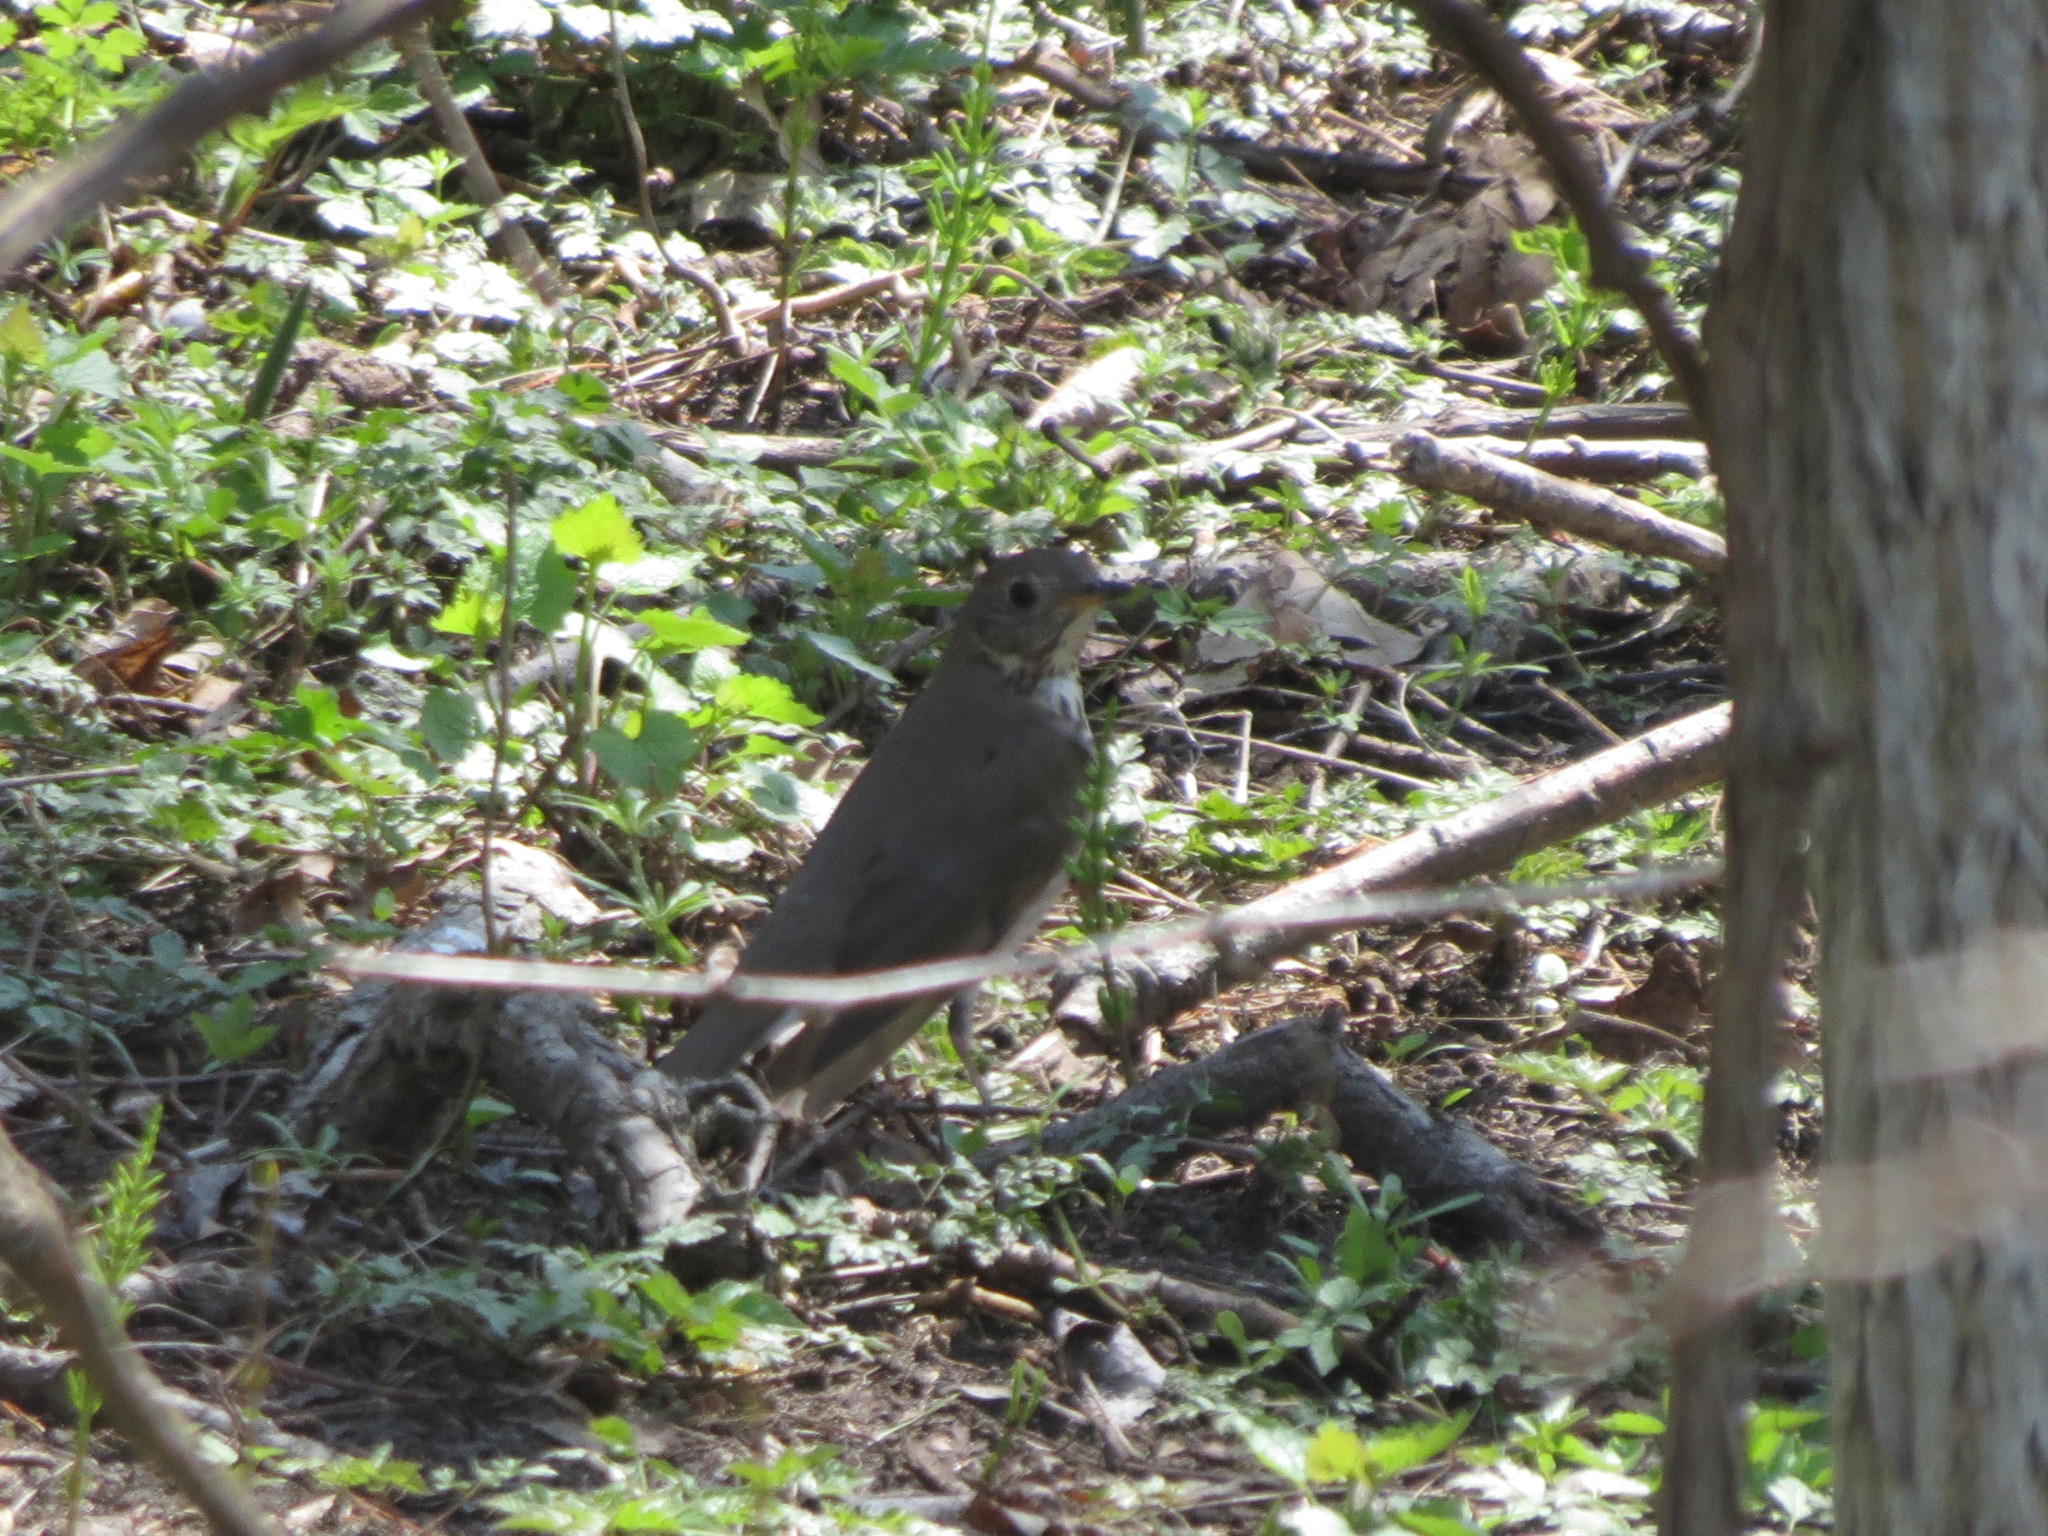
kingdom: Animalia
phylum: Chordata
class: Aves
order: Passeriformes
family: Turdidae
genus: Catharus
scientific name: Catharus minimus
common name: Grey-cheeked thrush
